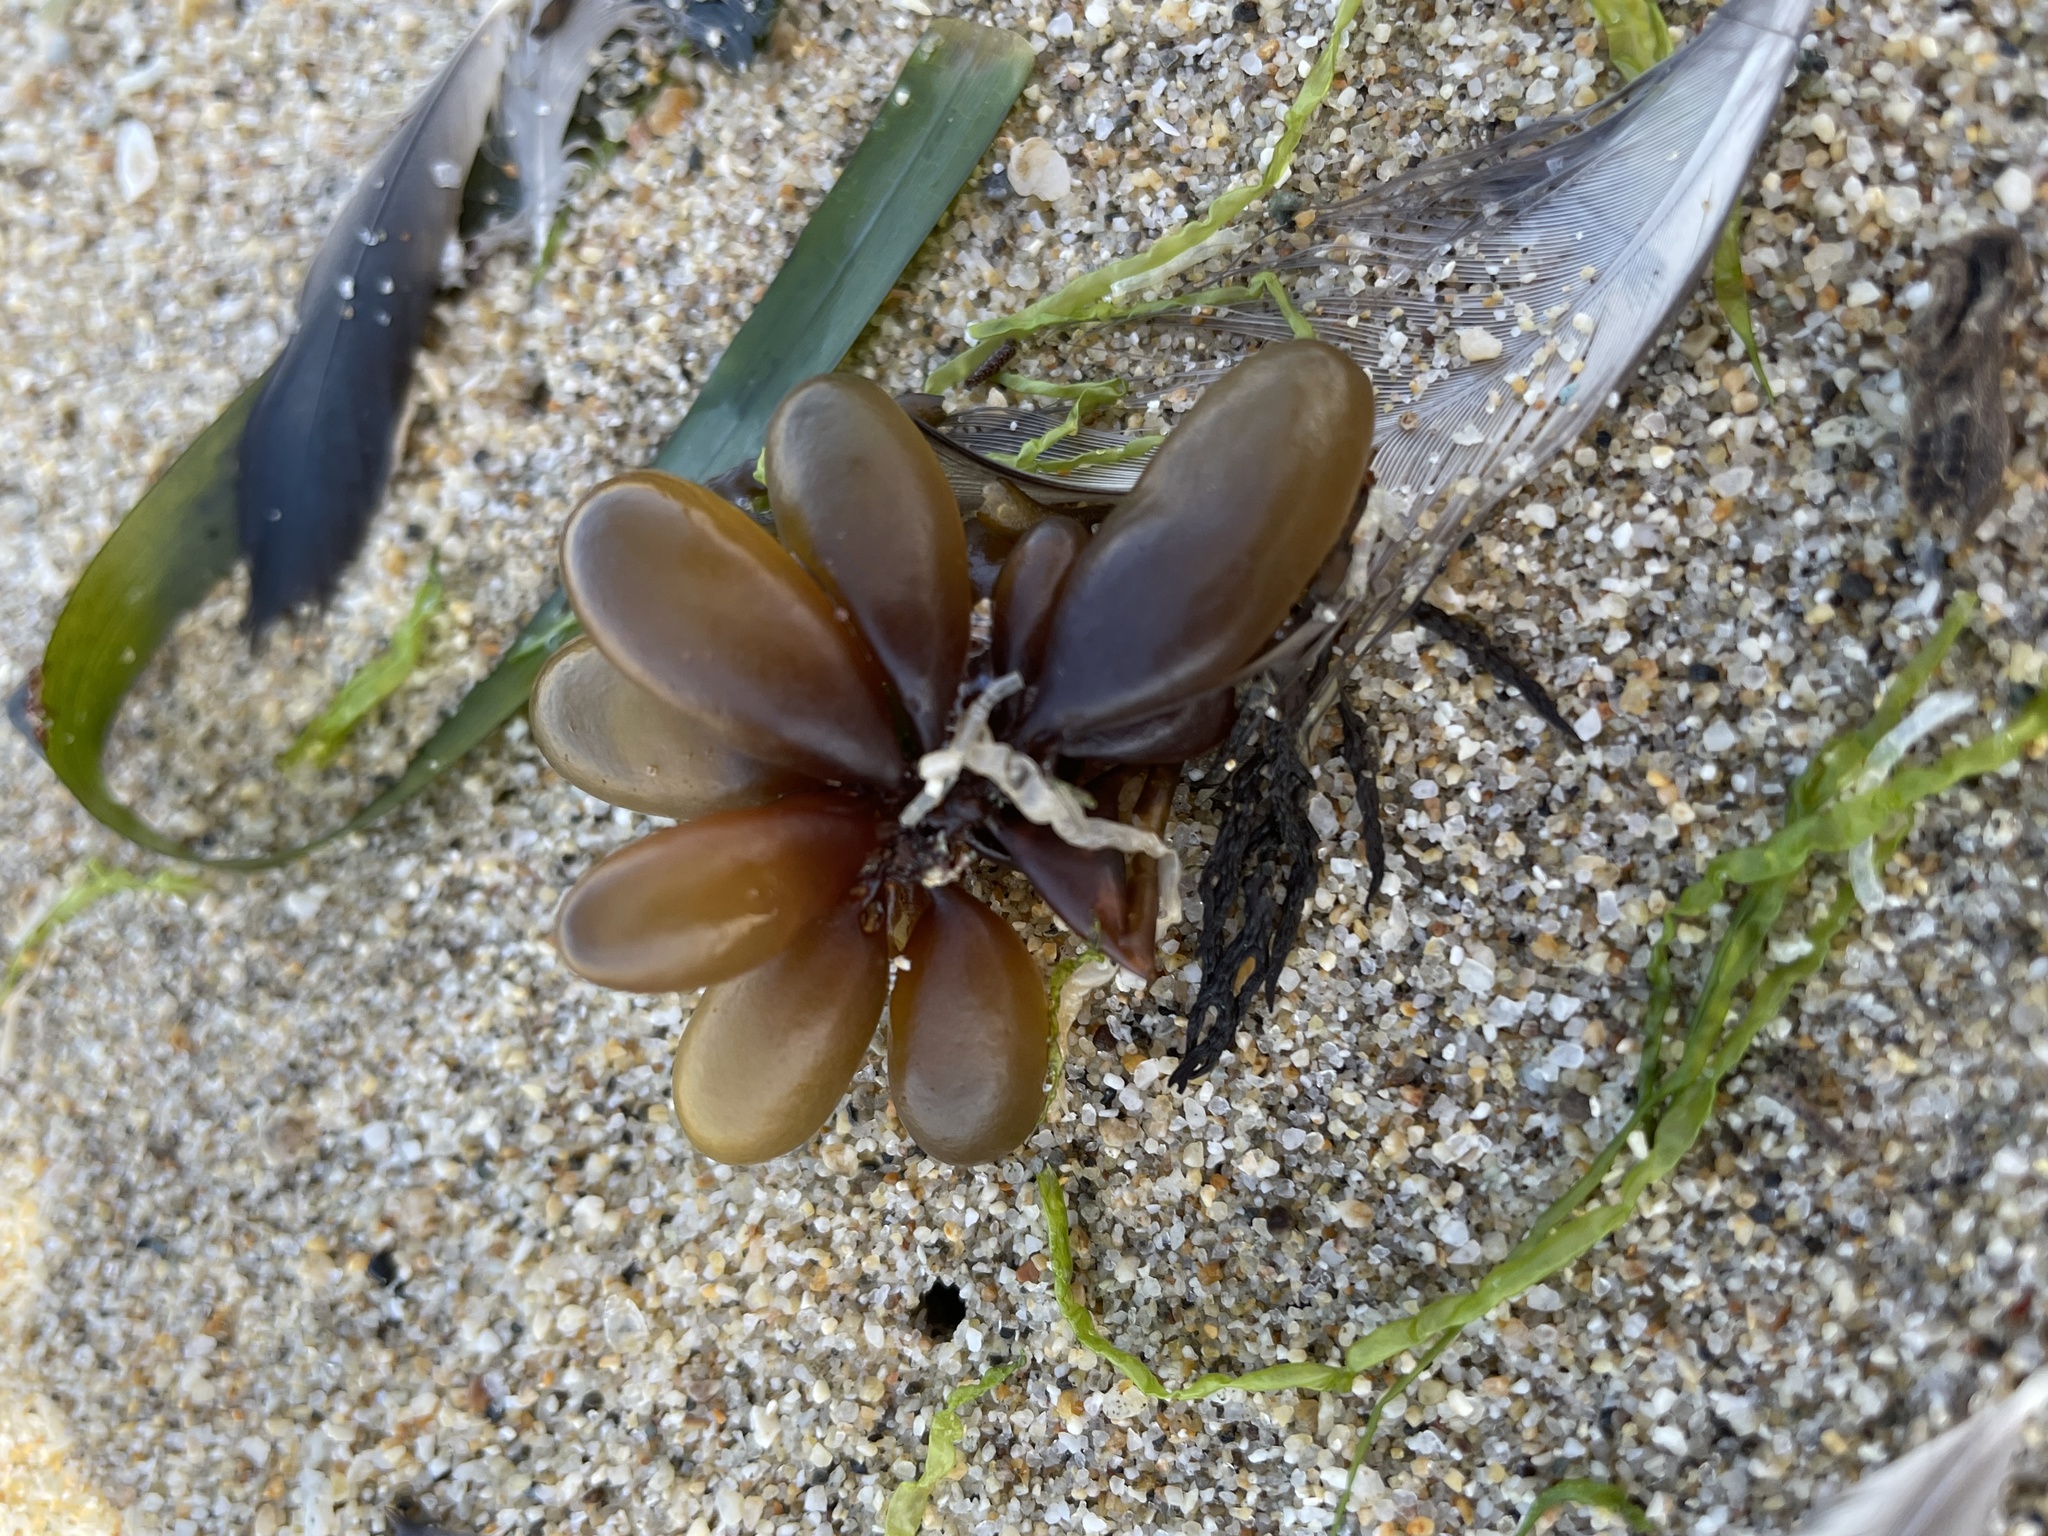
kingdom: Plantae
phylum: Rhodophyta
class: Florideophyceae
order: Palmariales
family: Palmariaceae
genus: Halosaccion
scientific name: Halosaccion glandiforme
